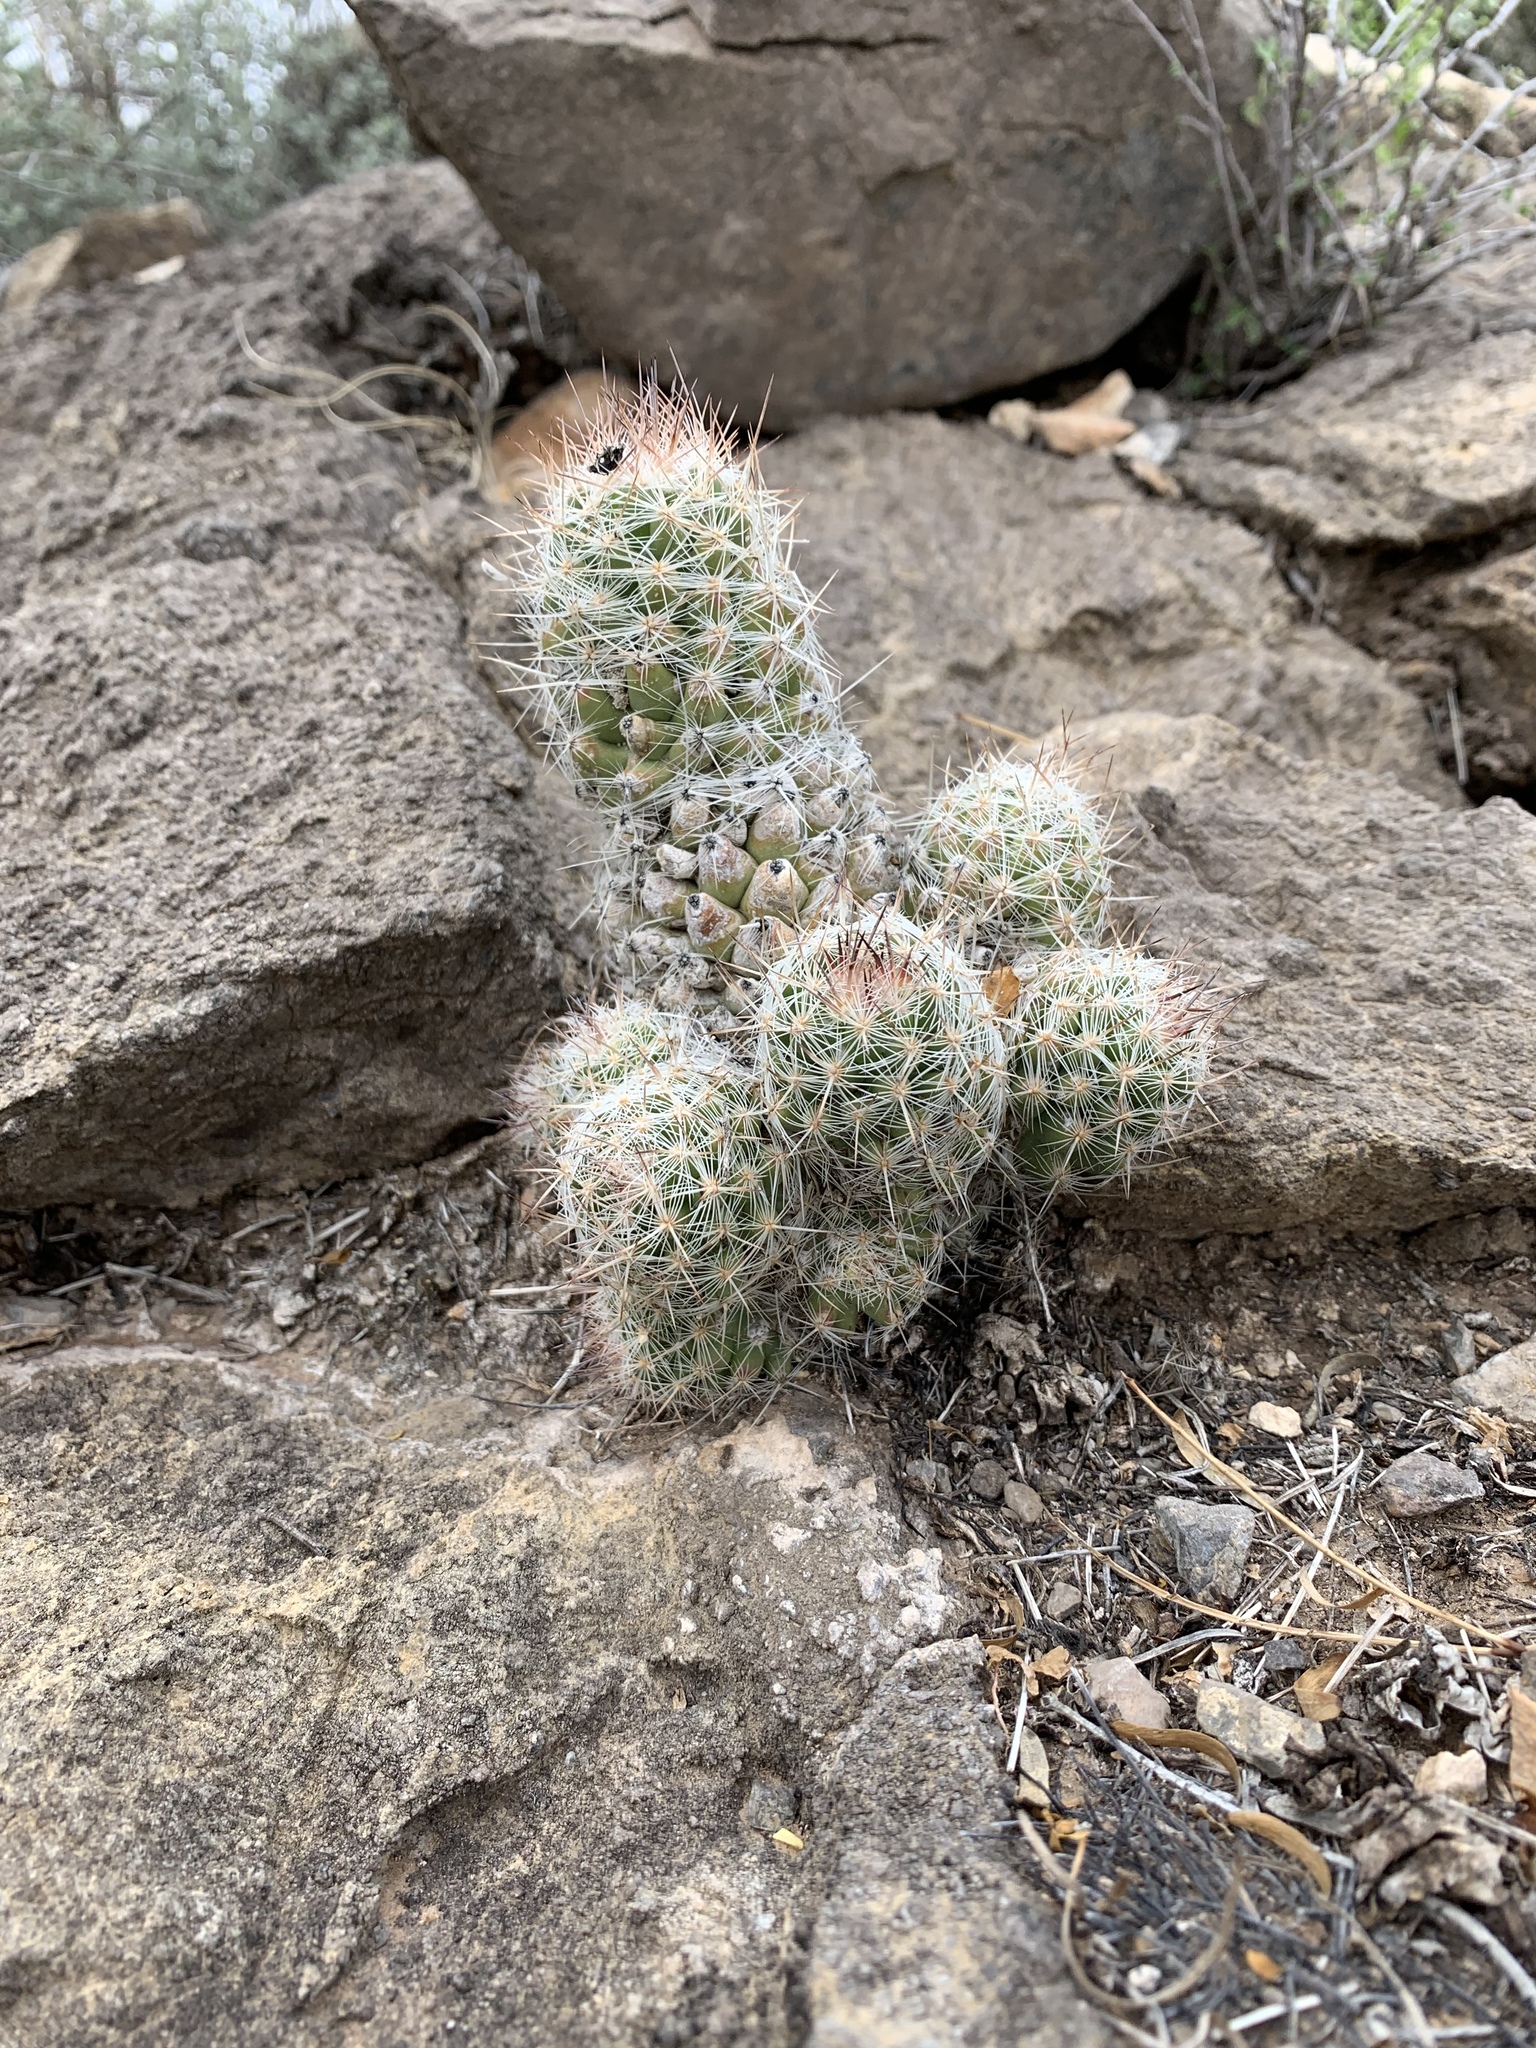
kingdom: Plantae
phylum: Tracheophyta
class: Magnoliopsida
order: Caryophyllales
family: Cactaceae
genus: Pelecyphora
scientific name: Pelecyphora tuberculosa
